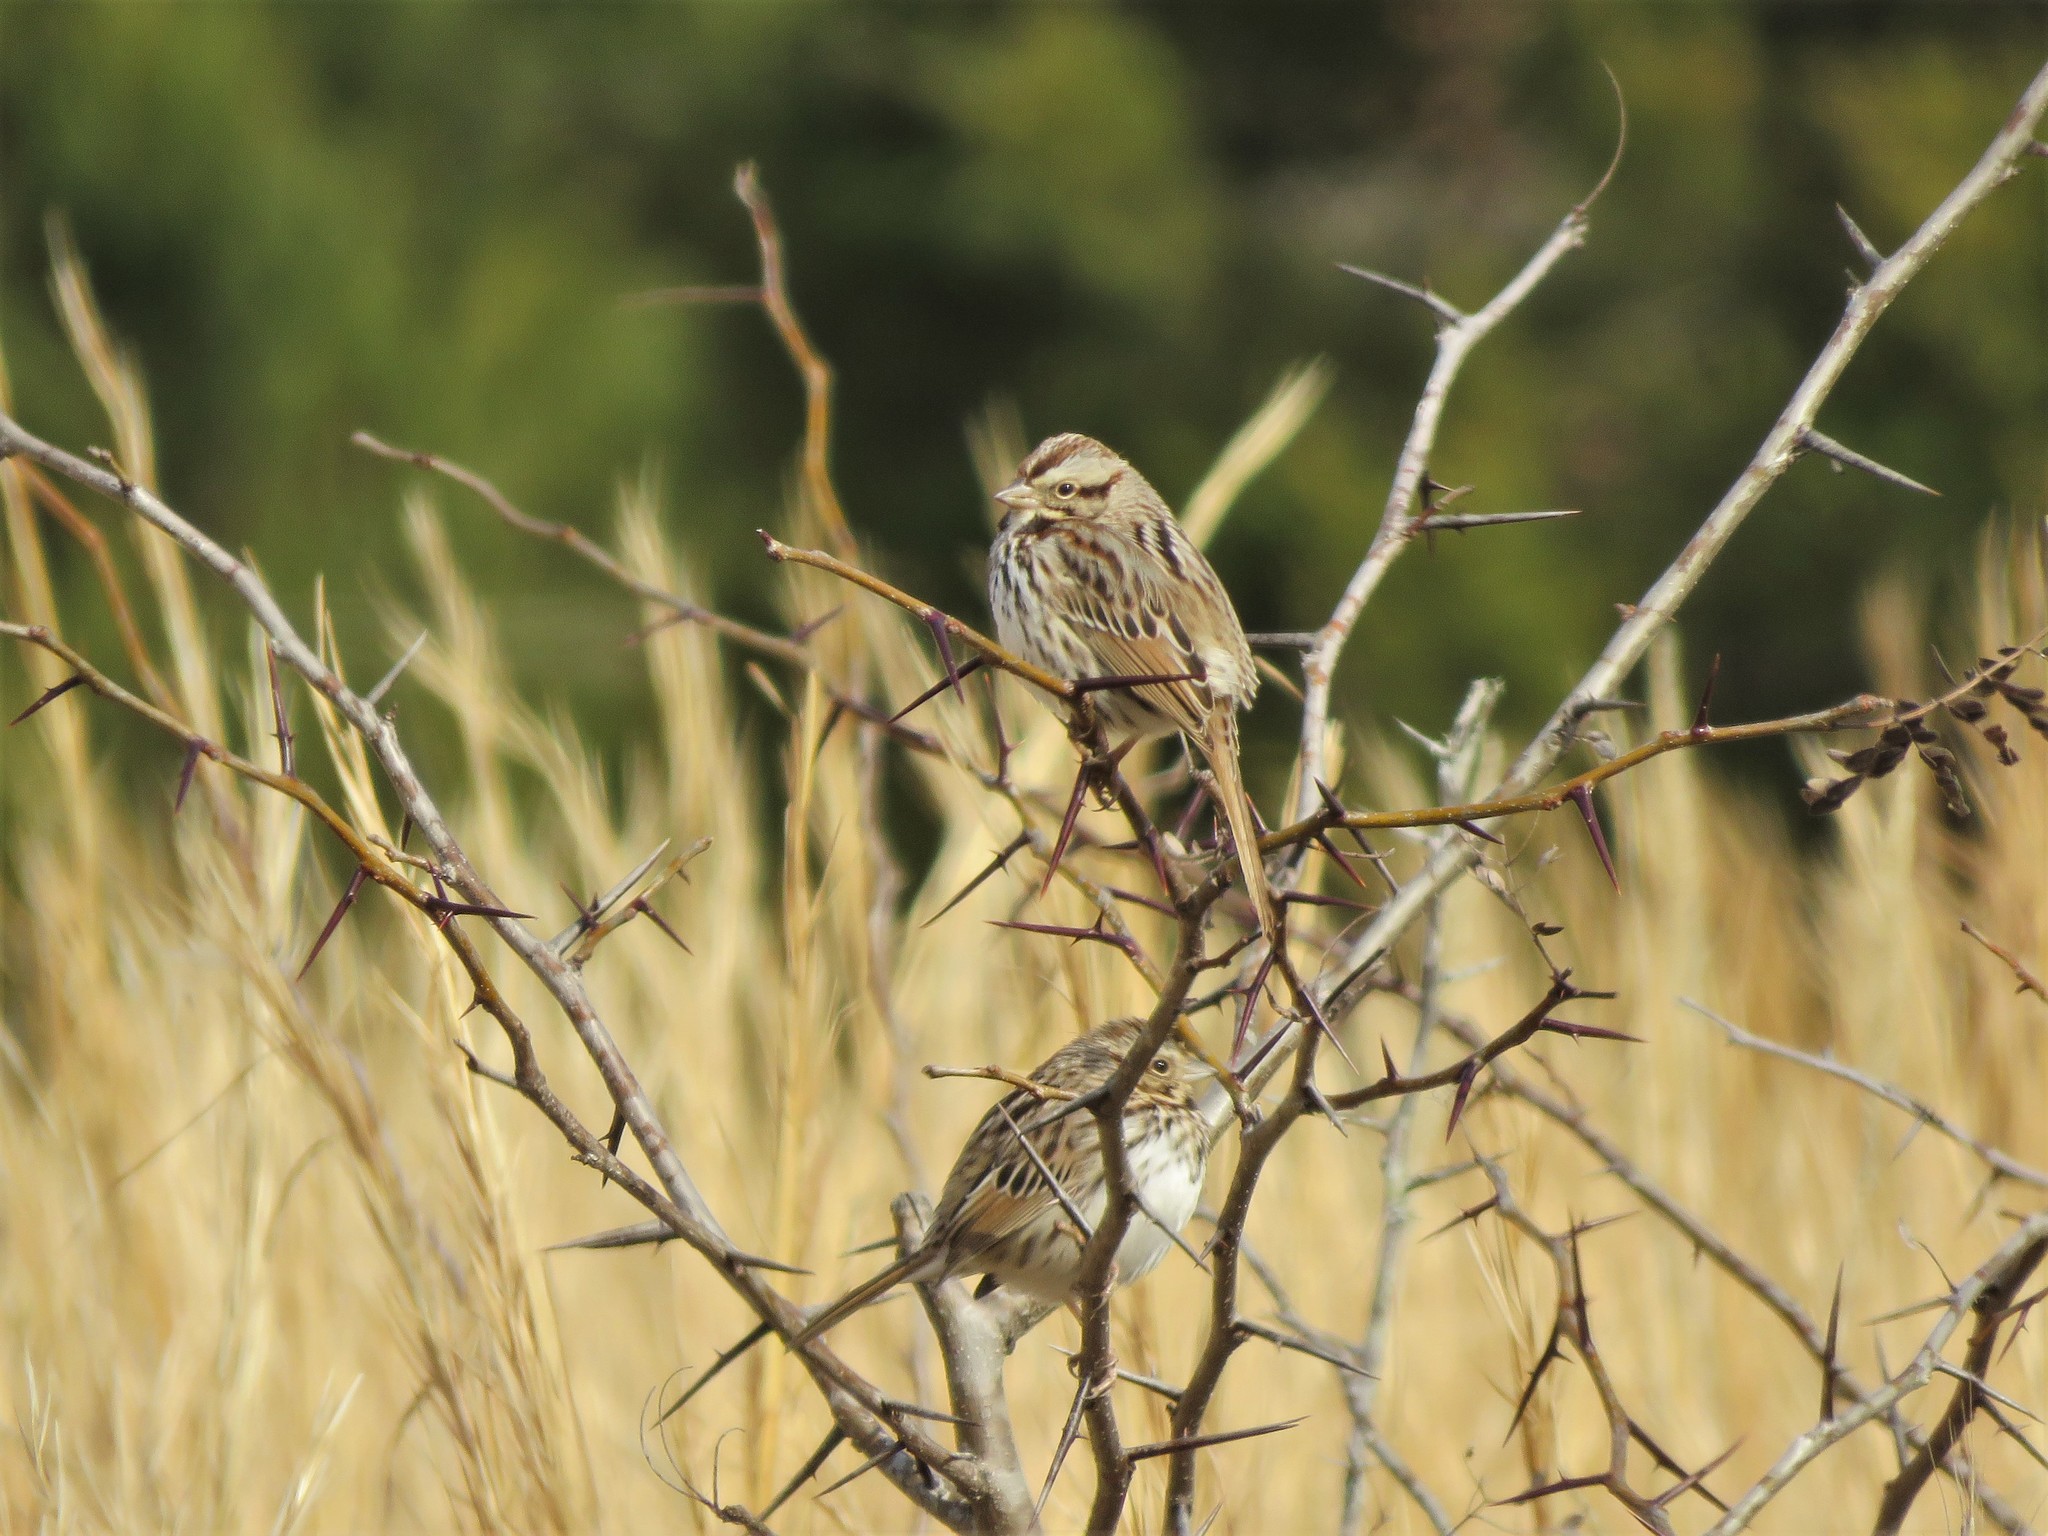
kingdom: Animalia
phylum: Chordata
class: Aves
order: Passeriformes
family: Passerellidae
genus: Melospiza
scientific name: Melospiza melodia
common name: Song sparrow
